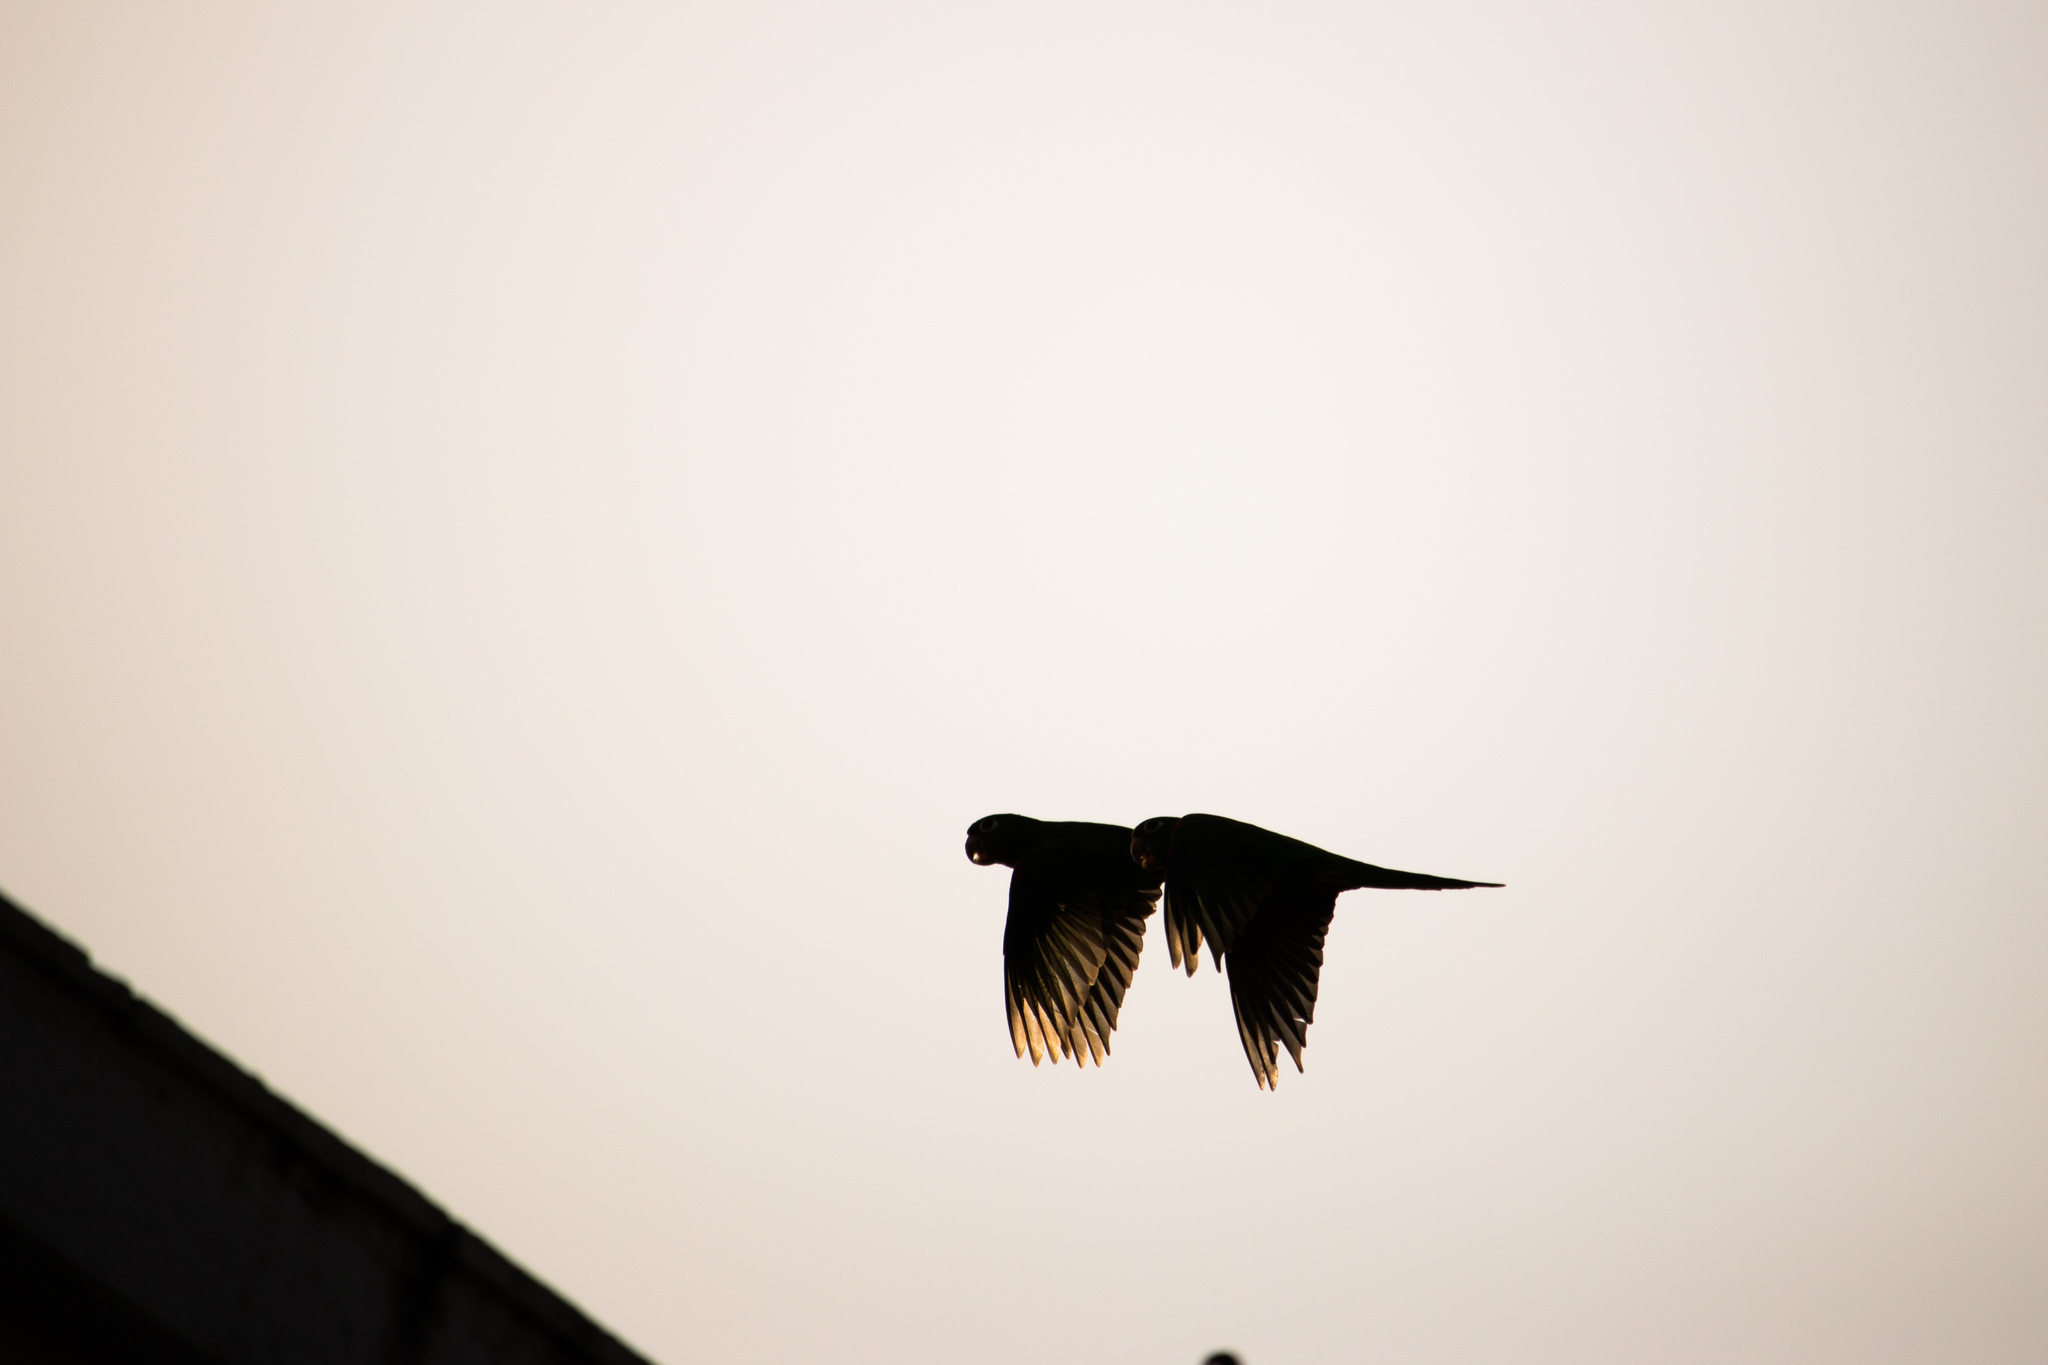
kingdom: Animalia
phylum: Chordata
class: Aves
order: Psittaciformes
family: Psittacidae
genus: Aratinga
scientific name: Aratinga chloroptera
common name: Hispaniolan parakeet
